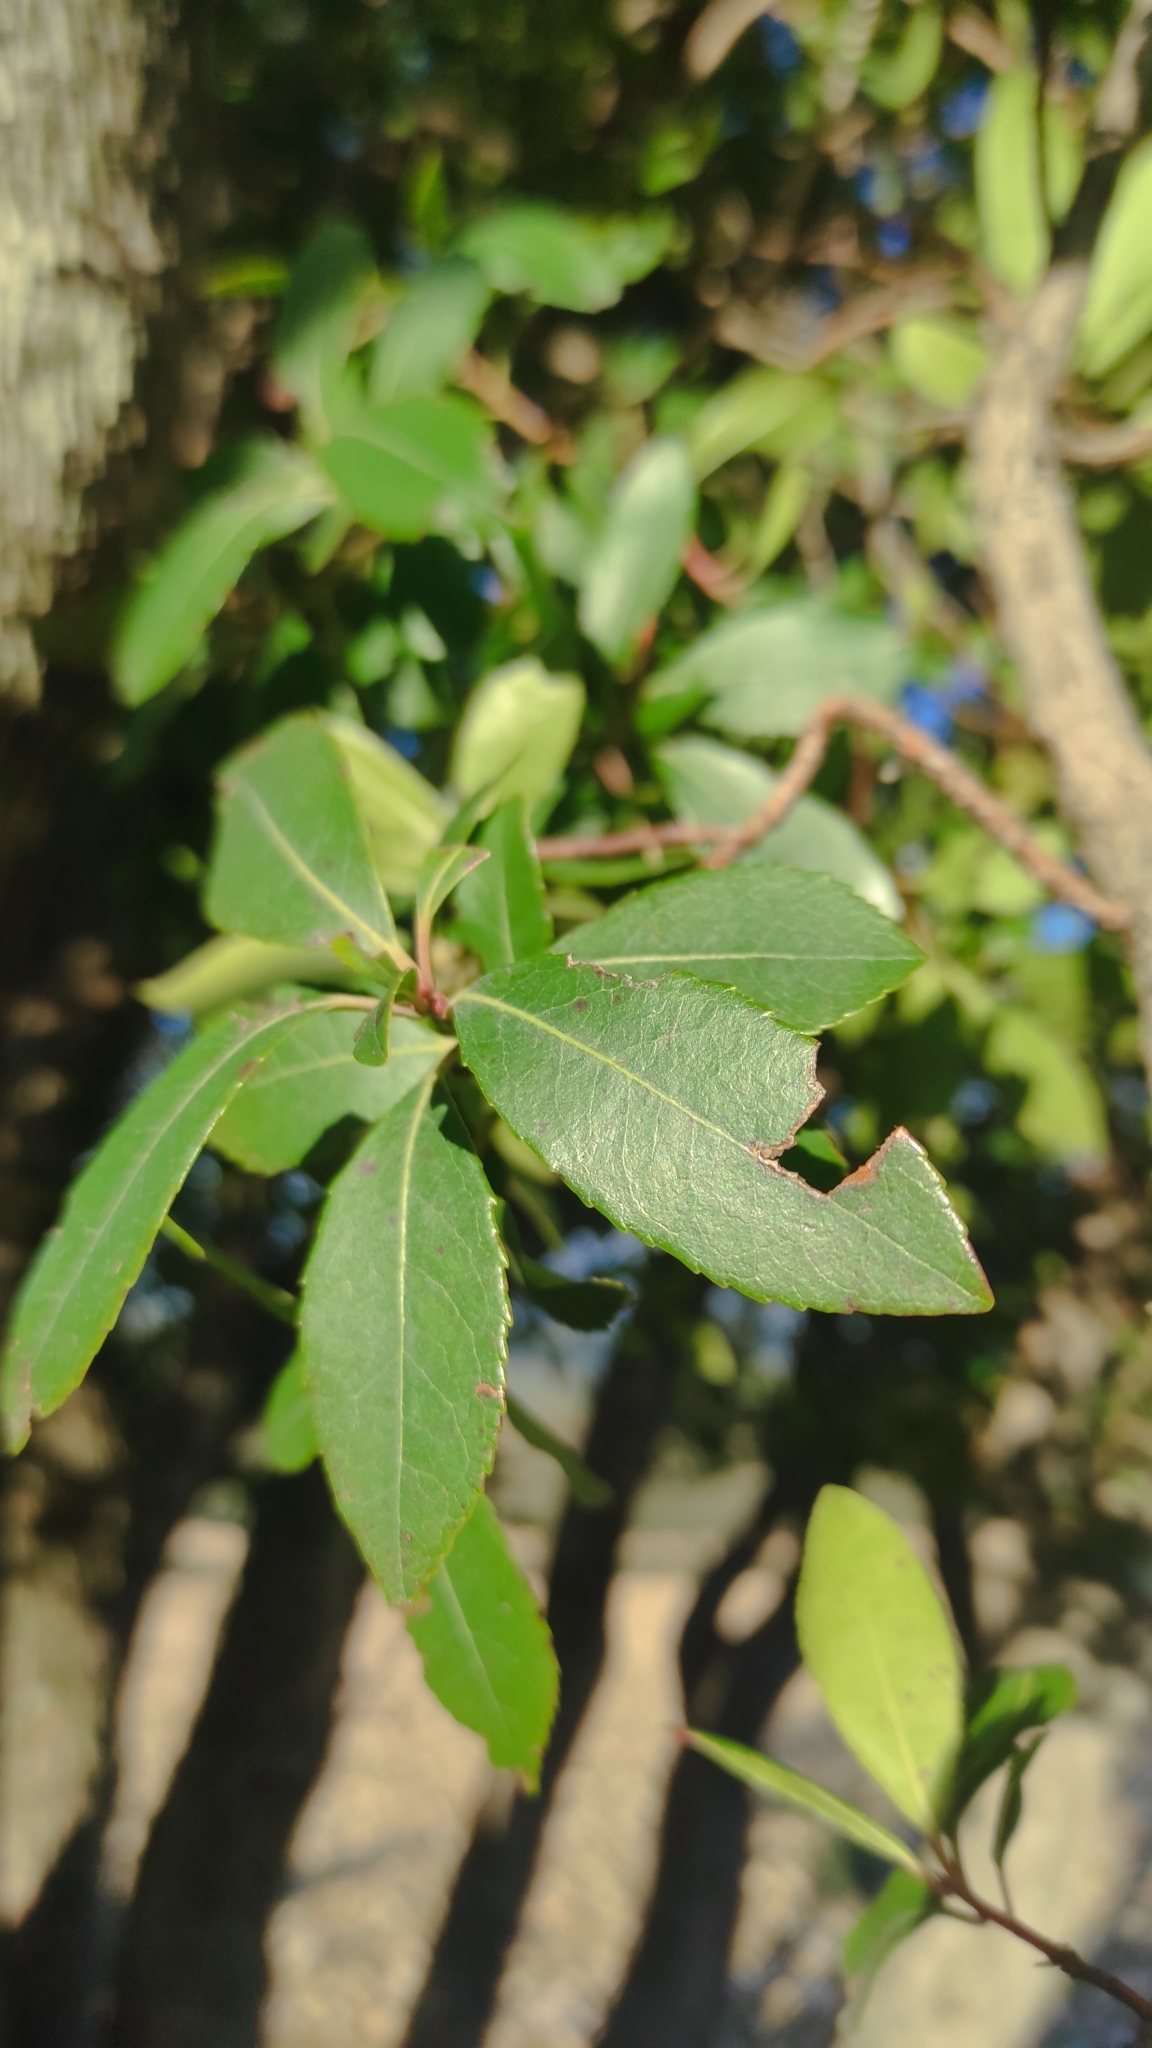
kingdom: Plantae
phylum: Tracheophyta
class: Magnoliopsida
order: Ericales
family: Ericaceae
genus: Arbutus
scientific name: Arbutus unedo
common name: Strawberry-tree
